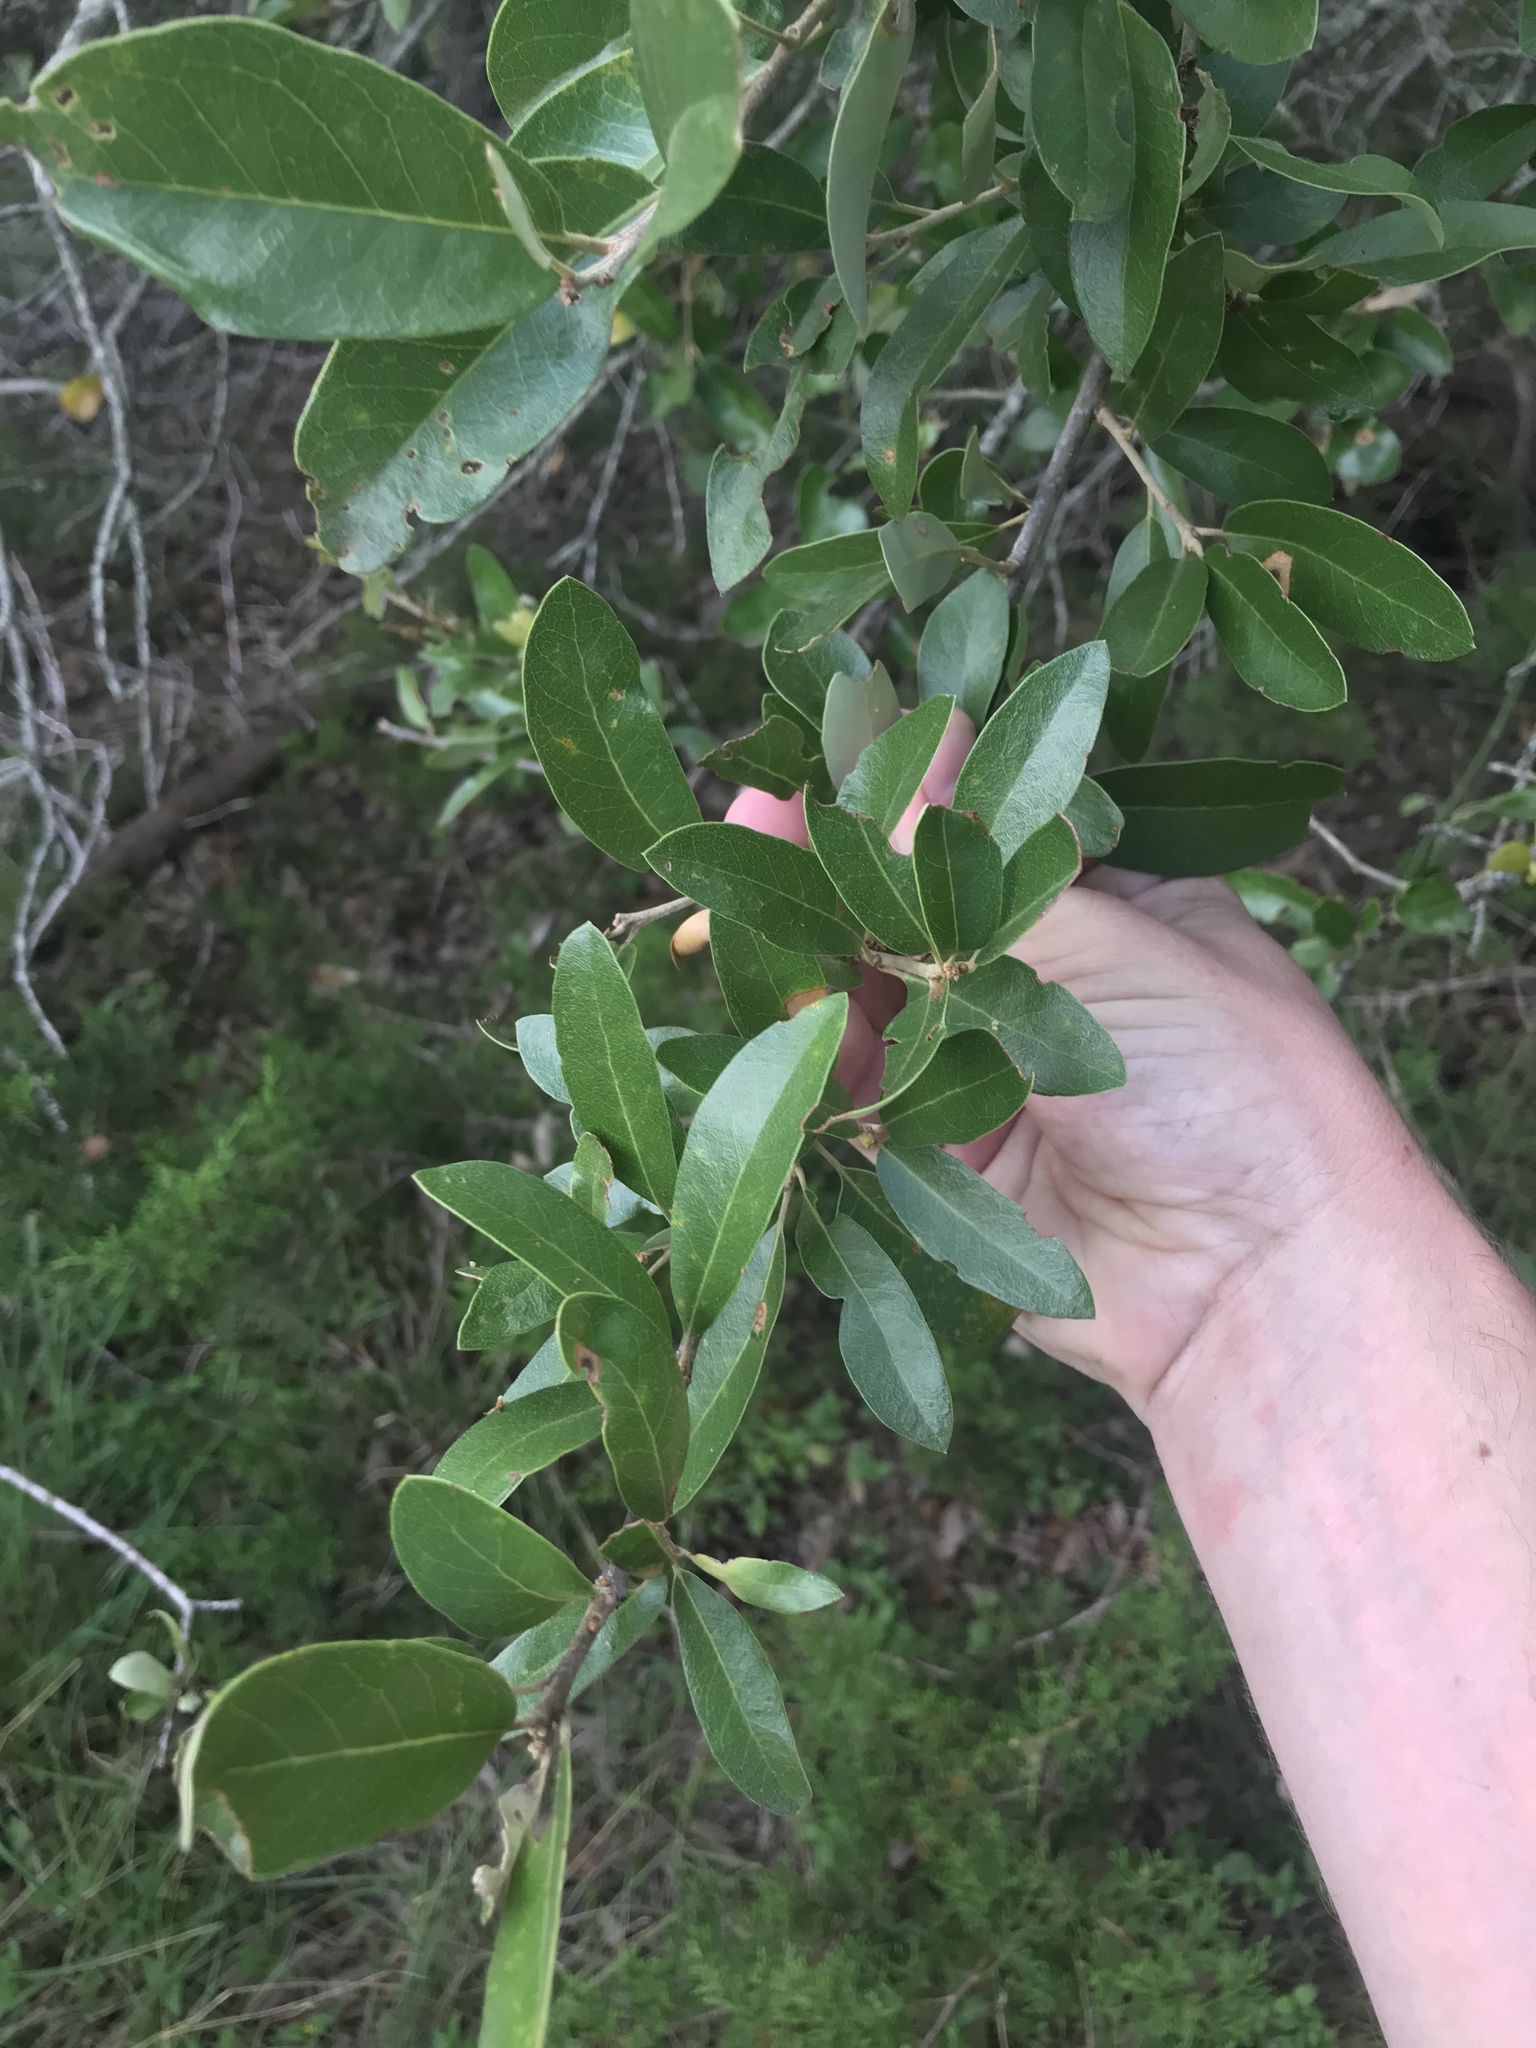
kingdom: Plantae
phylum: Tracheophyta
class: Magnoliopsida
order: Fagales
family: Fagaceae
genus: Quercus
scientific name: Quercus fusiformis
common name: Texas live oak
